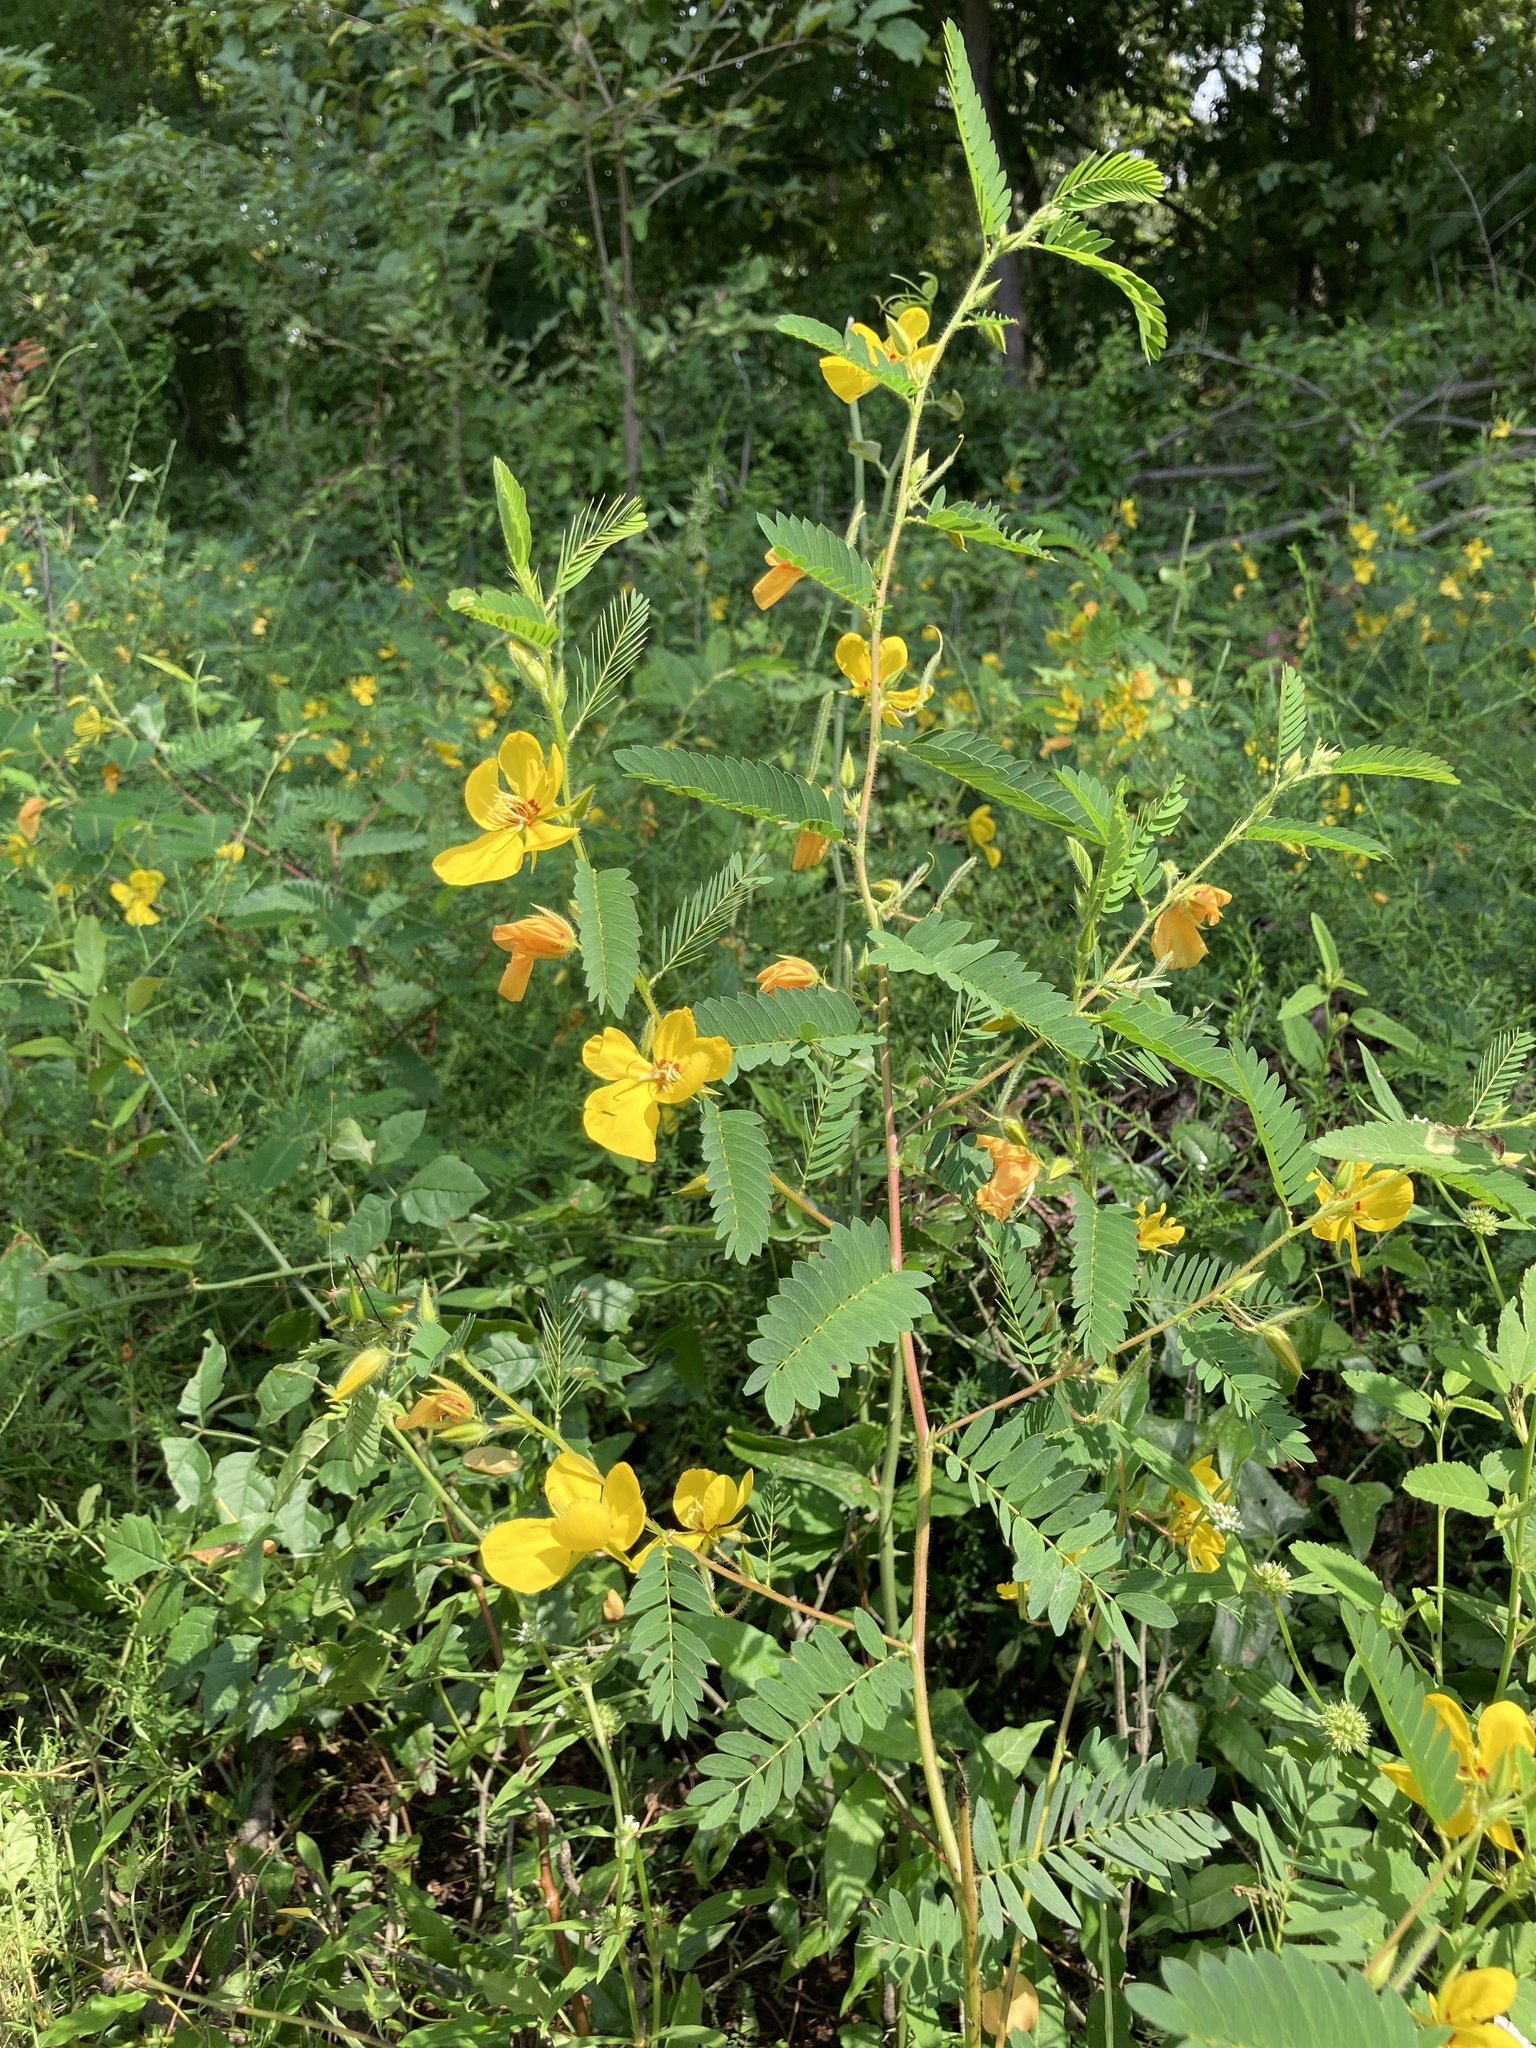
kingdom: Plantae
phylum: Tracheophyta
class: Magnoliopsida
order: Fabales
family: Fabaceae
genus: Chamaecrista
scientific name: Chamaecrista fasciculata
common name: Golden cassia
